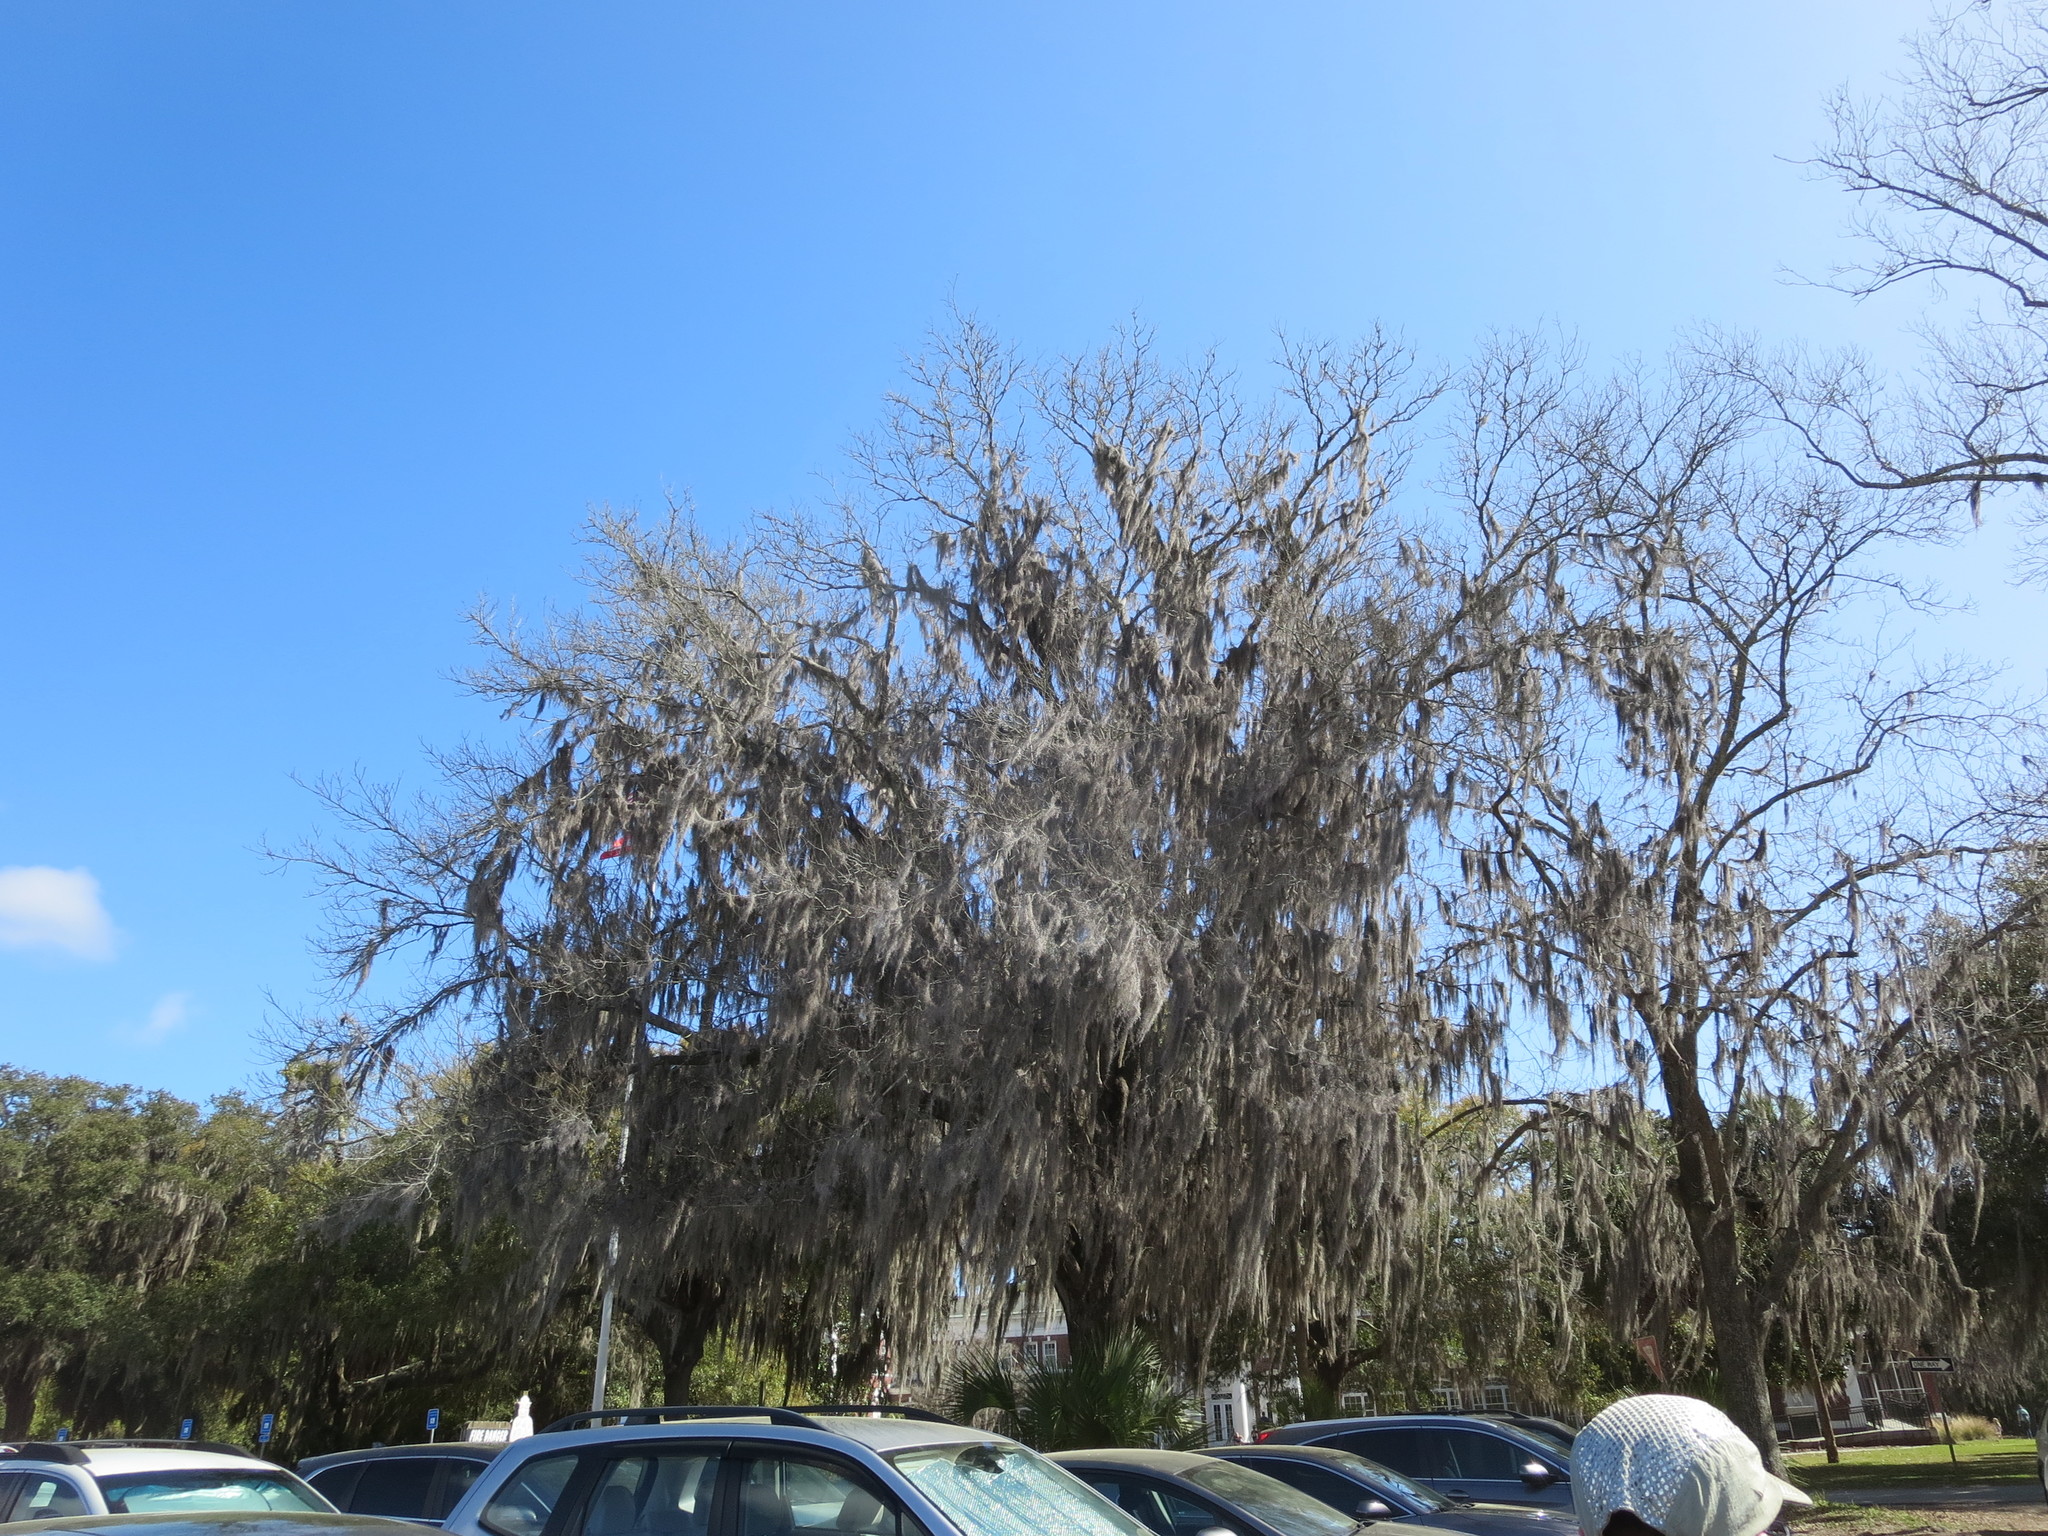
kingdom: Plantae
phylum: Tracheophyta
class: Liliopsida
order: Poales
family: Bromeliaceae
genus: Tillandsia
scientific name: Tillandsia usneoides
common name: Spanish moss
